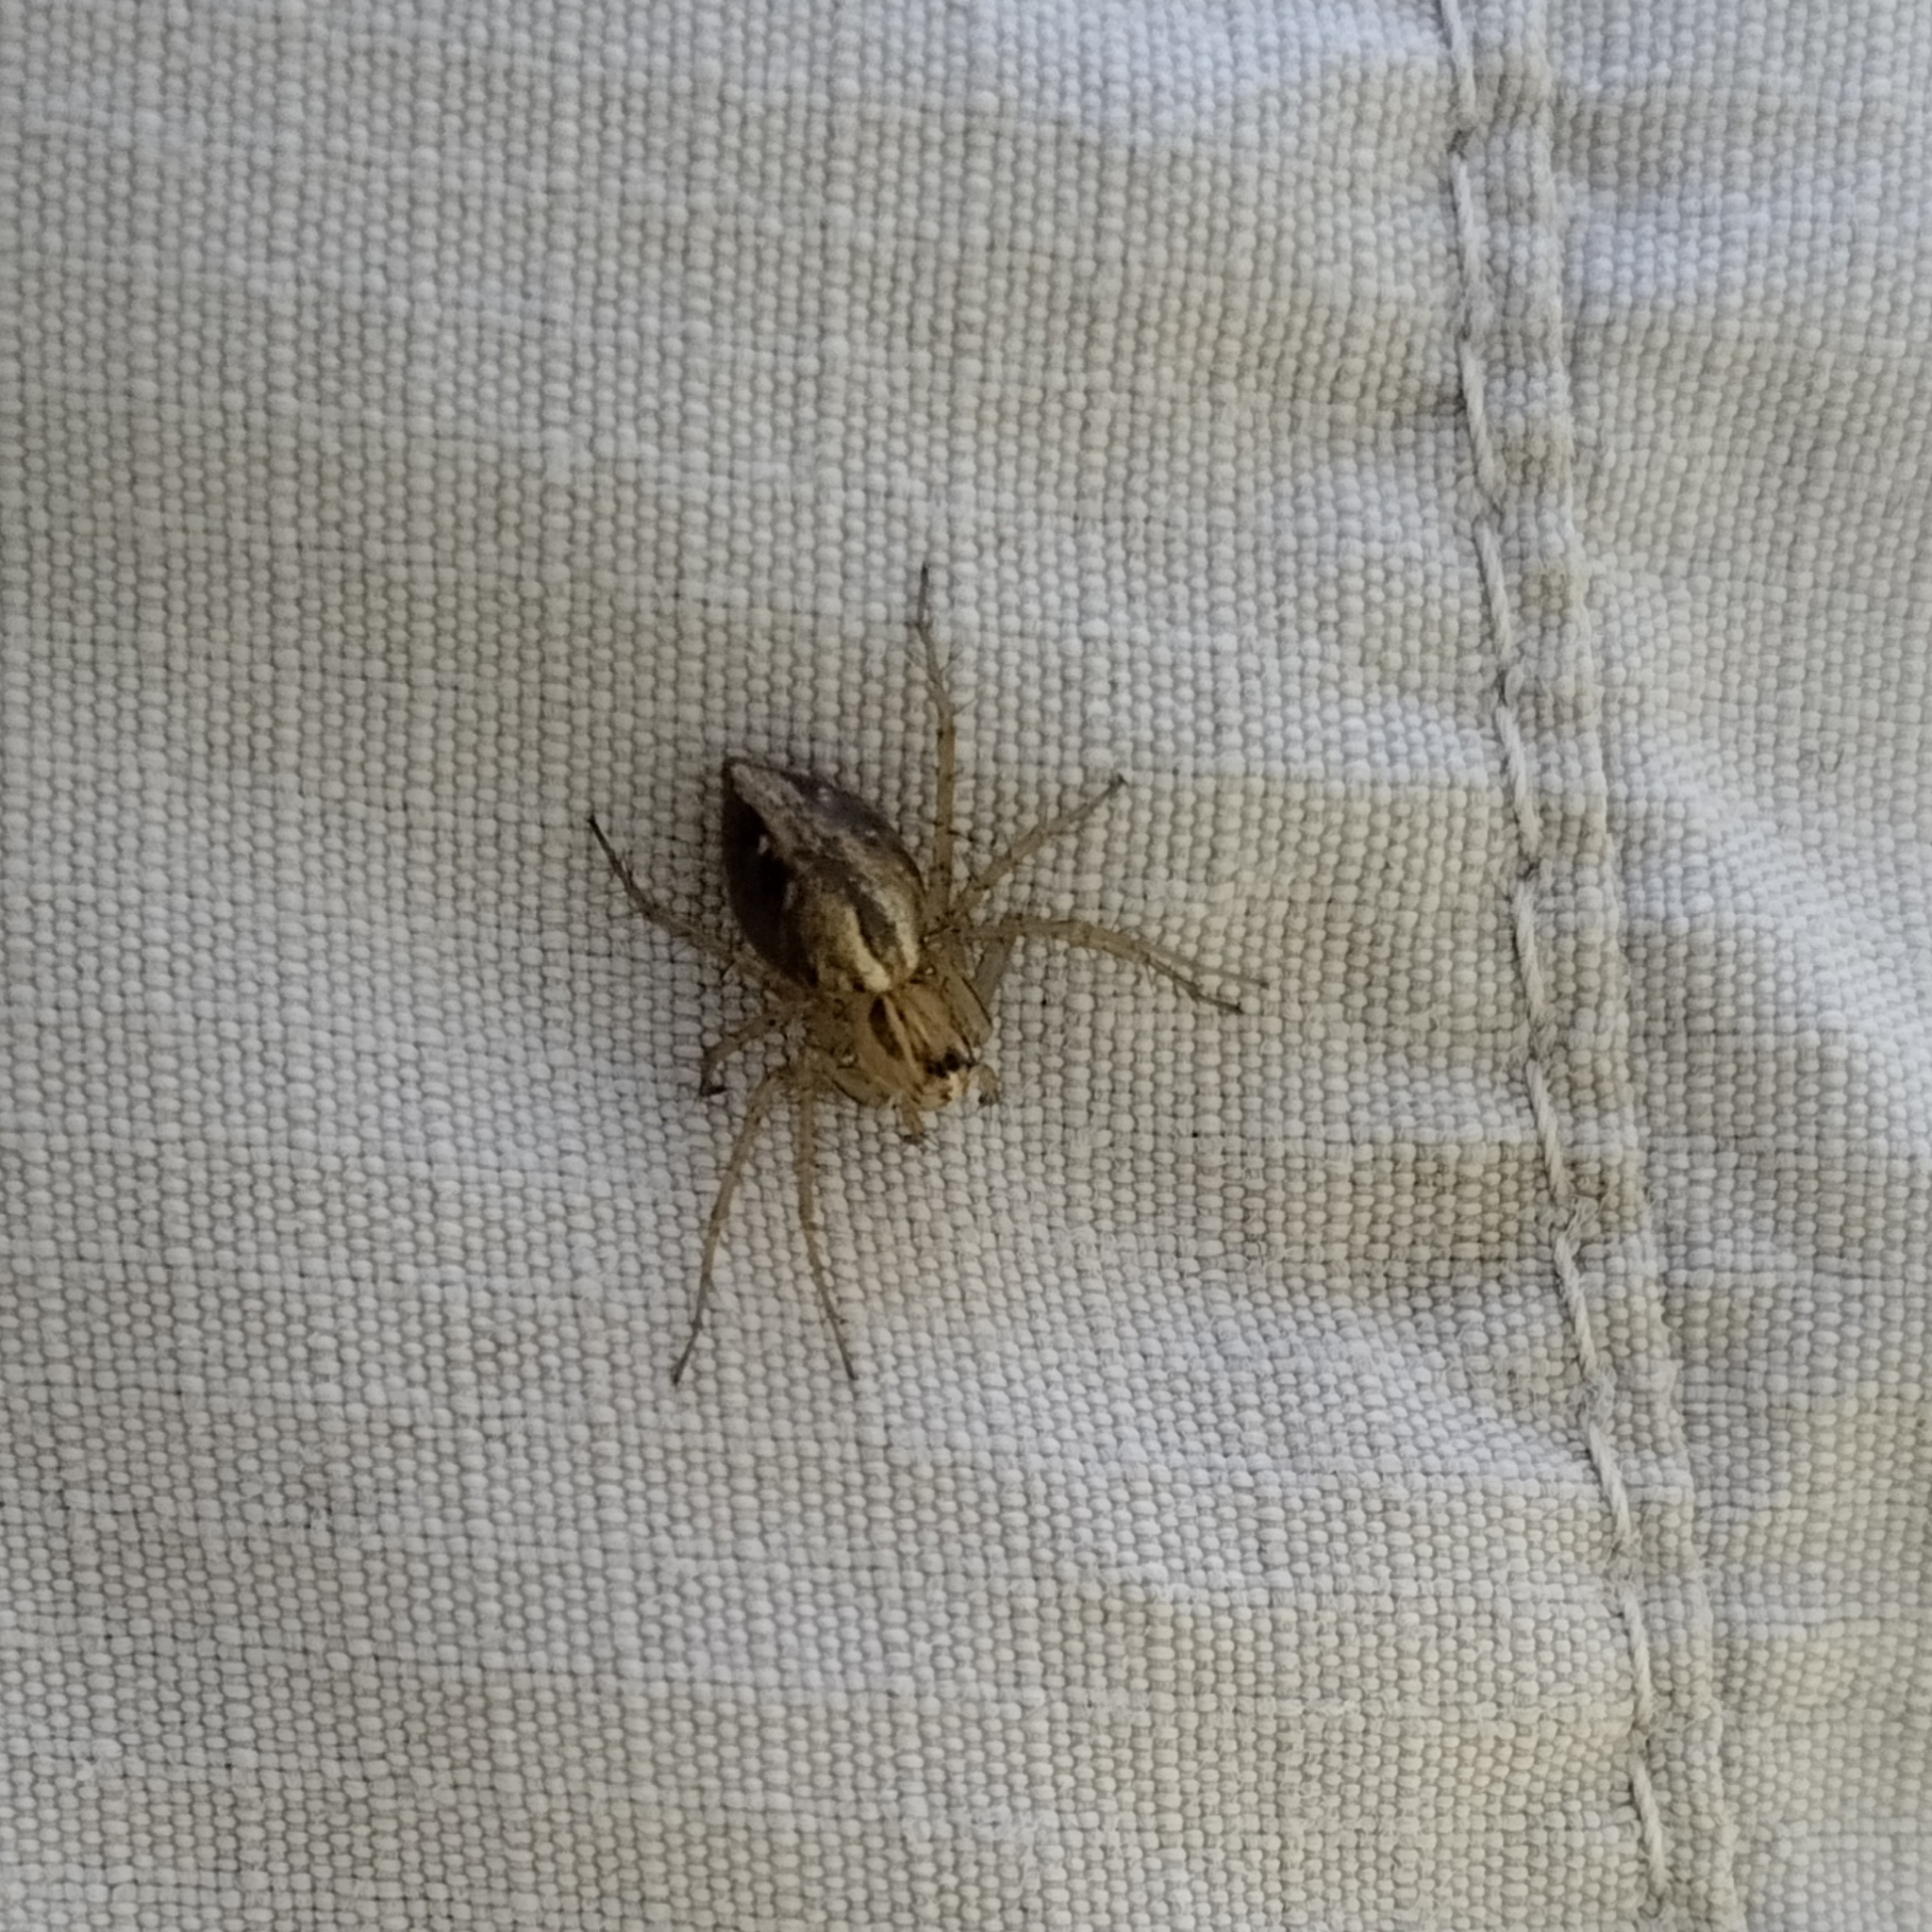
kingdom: Animalia
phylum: Arthropoda
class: Arachnida
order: Araneae
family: Oxyopidae
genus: Oxyopes
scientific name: Oxyopes salticus
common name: Lynx spiders
